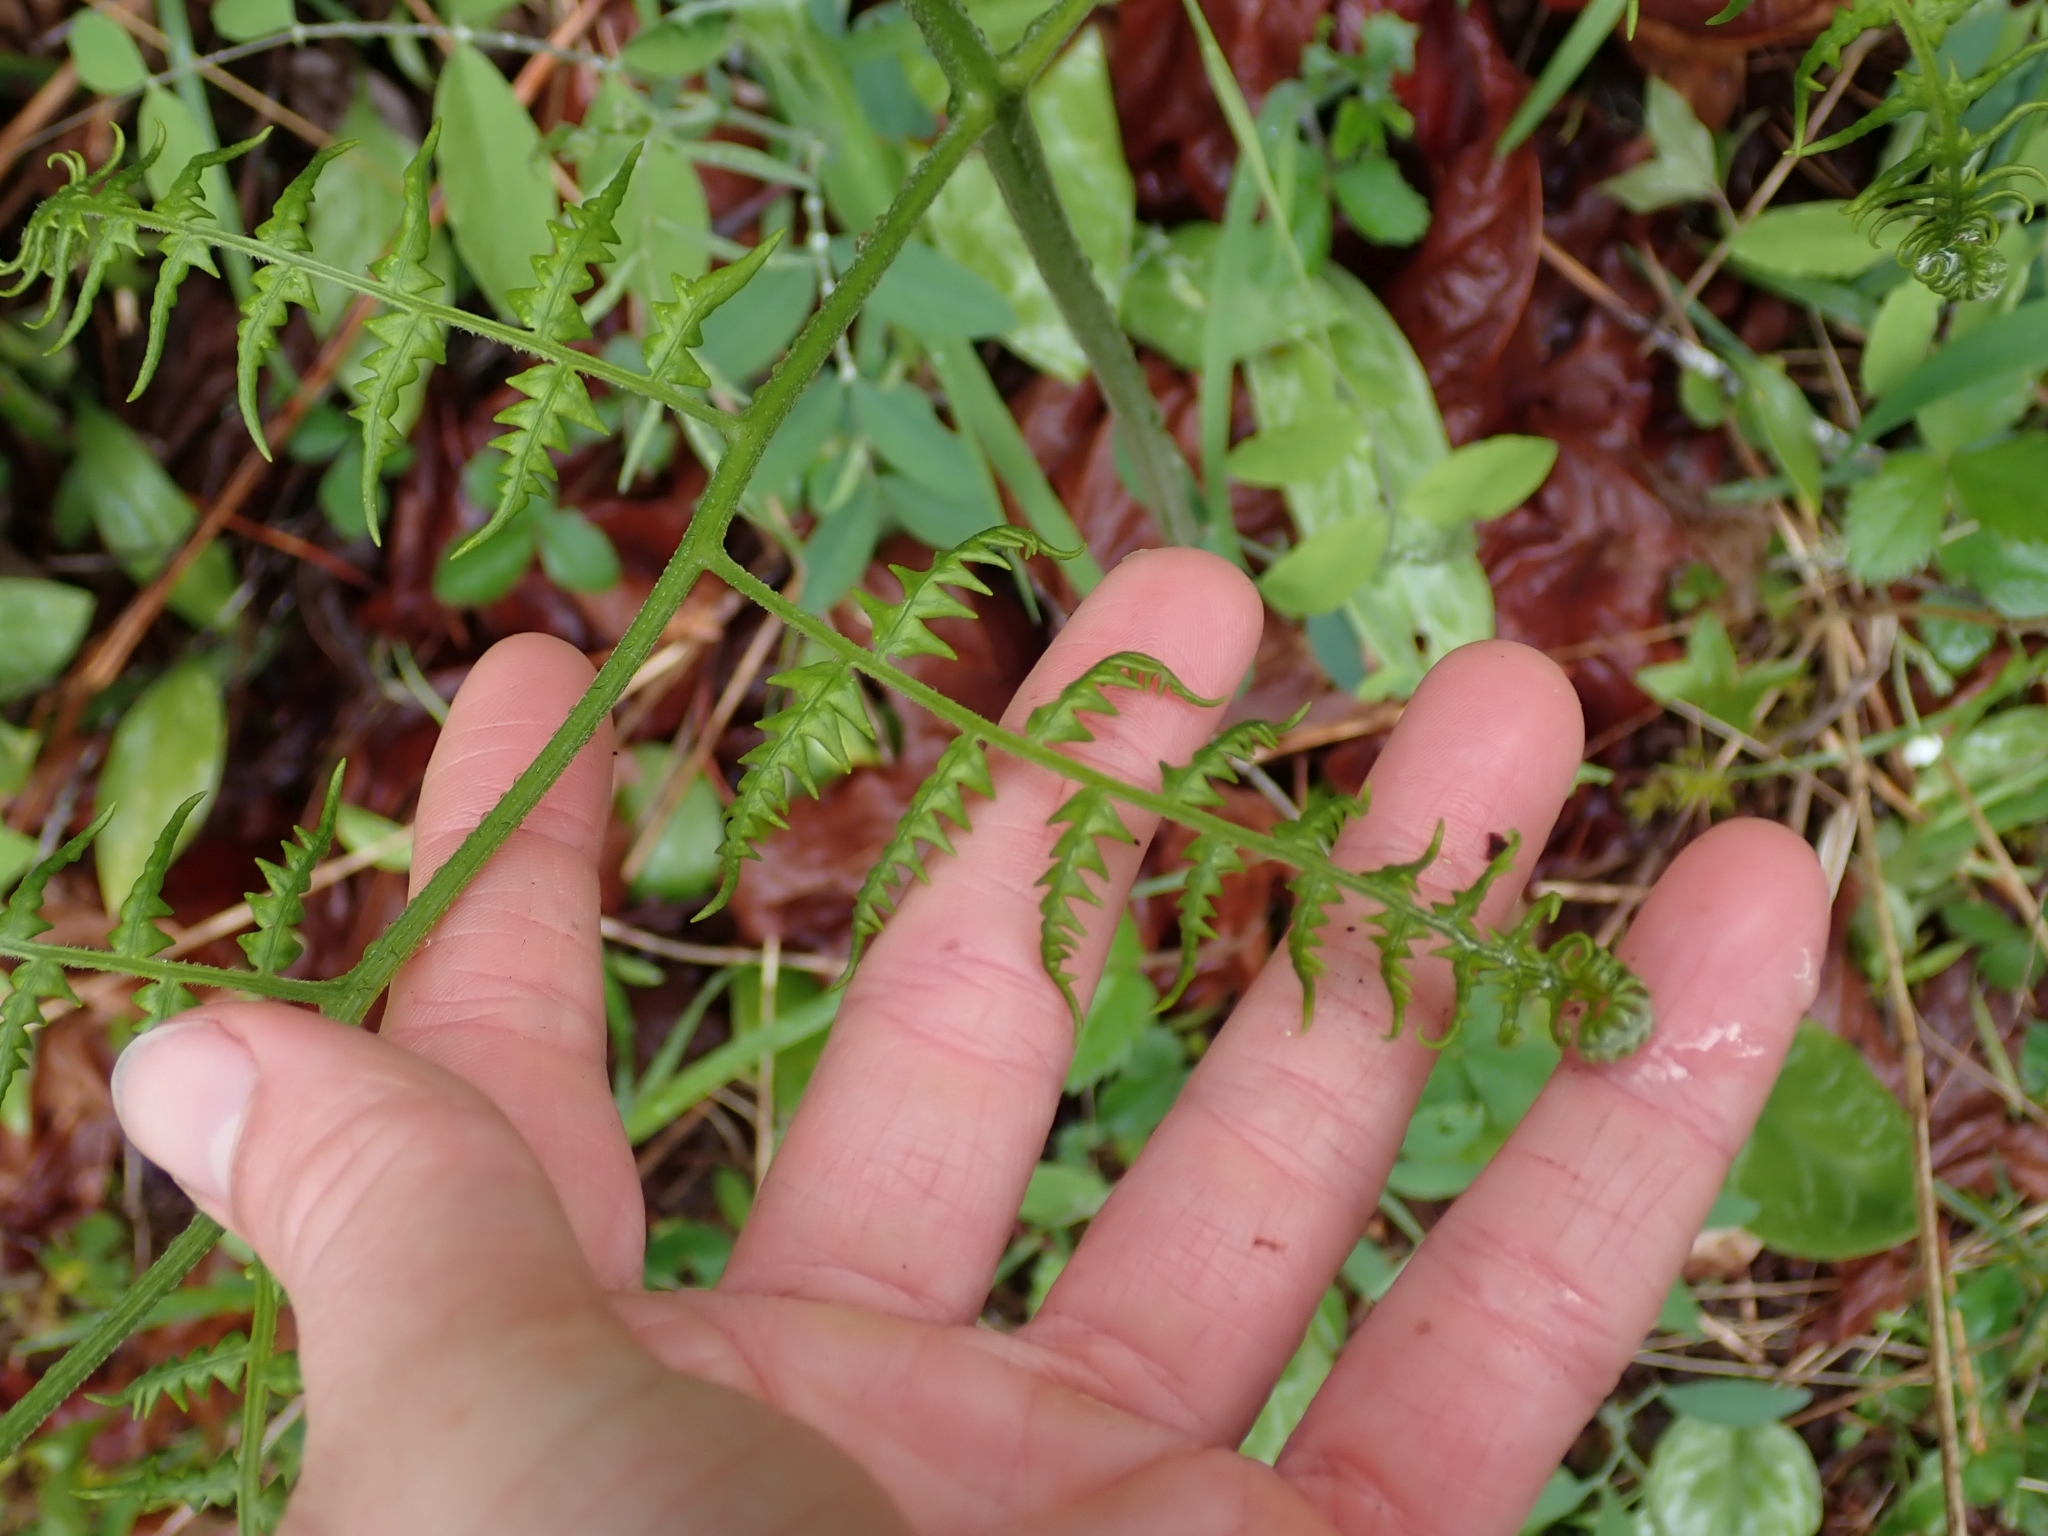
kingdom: Plantae
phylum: Tracheophyta
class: Polypodiopsida
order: Polypodiales
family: Dennstaedtiaceae
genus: Pteridium
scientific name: Pteridium aquilinum
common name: Bracken
